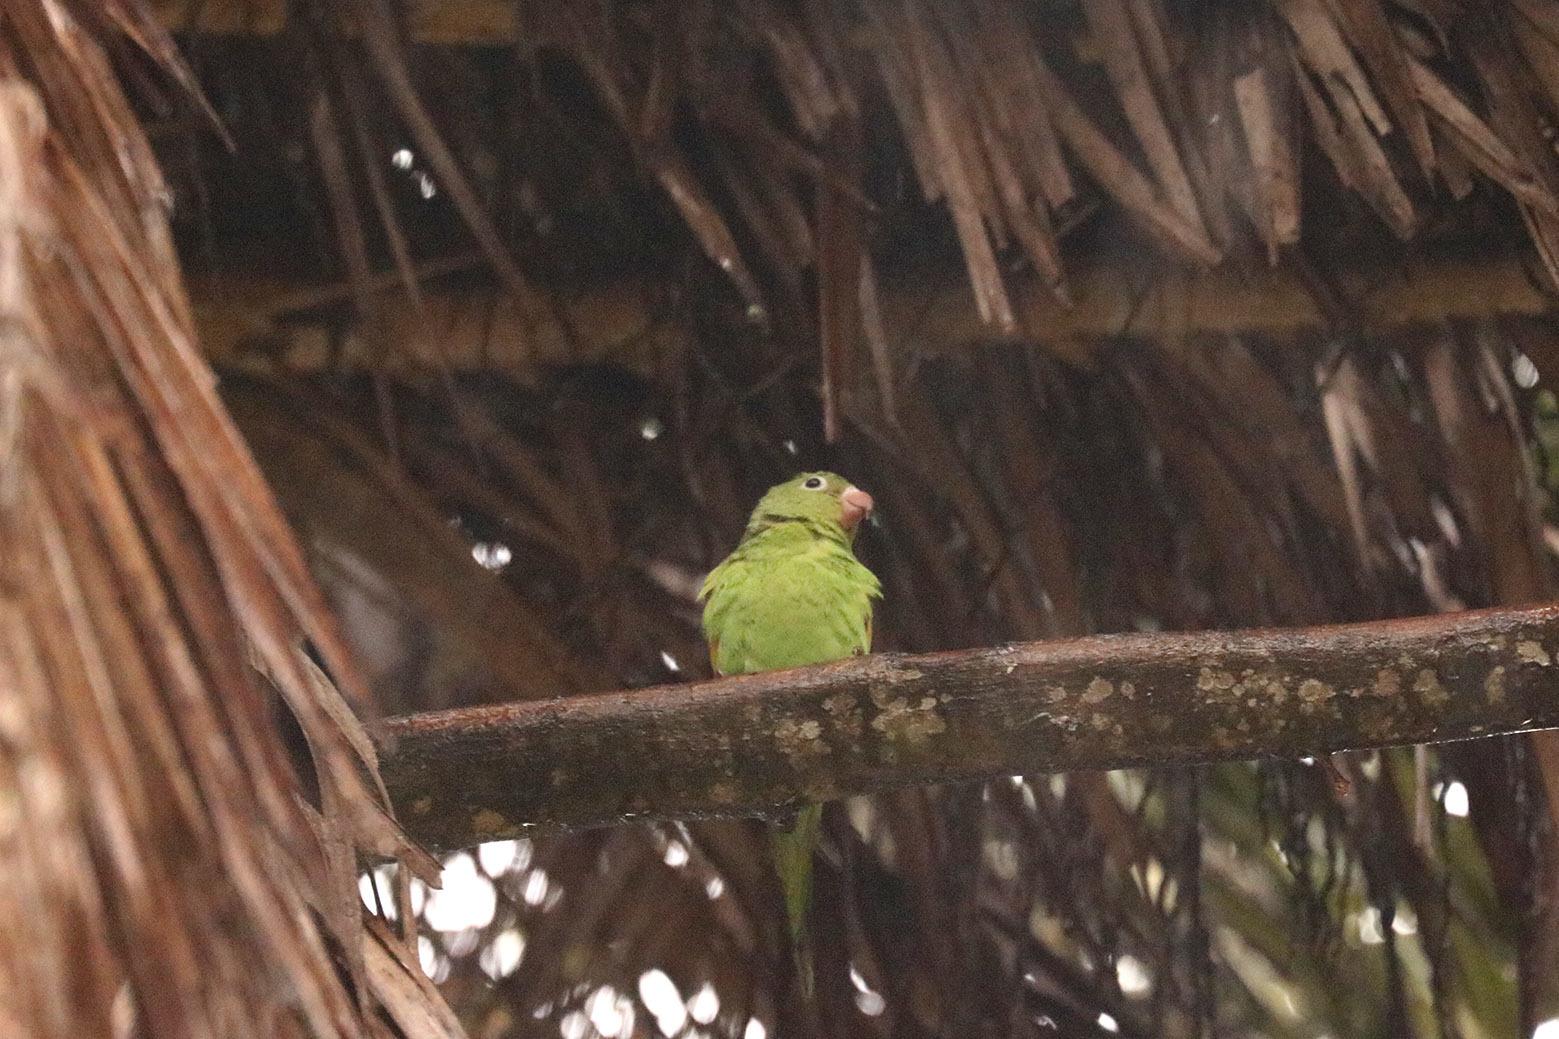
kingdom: Animalia
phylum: Chordata
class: Aves
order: Psittaciformes
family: Psittacidae
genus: Brotogeris
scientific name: Brotogeris chiriri
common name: Yellow-chevroned parakeet
